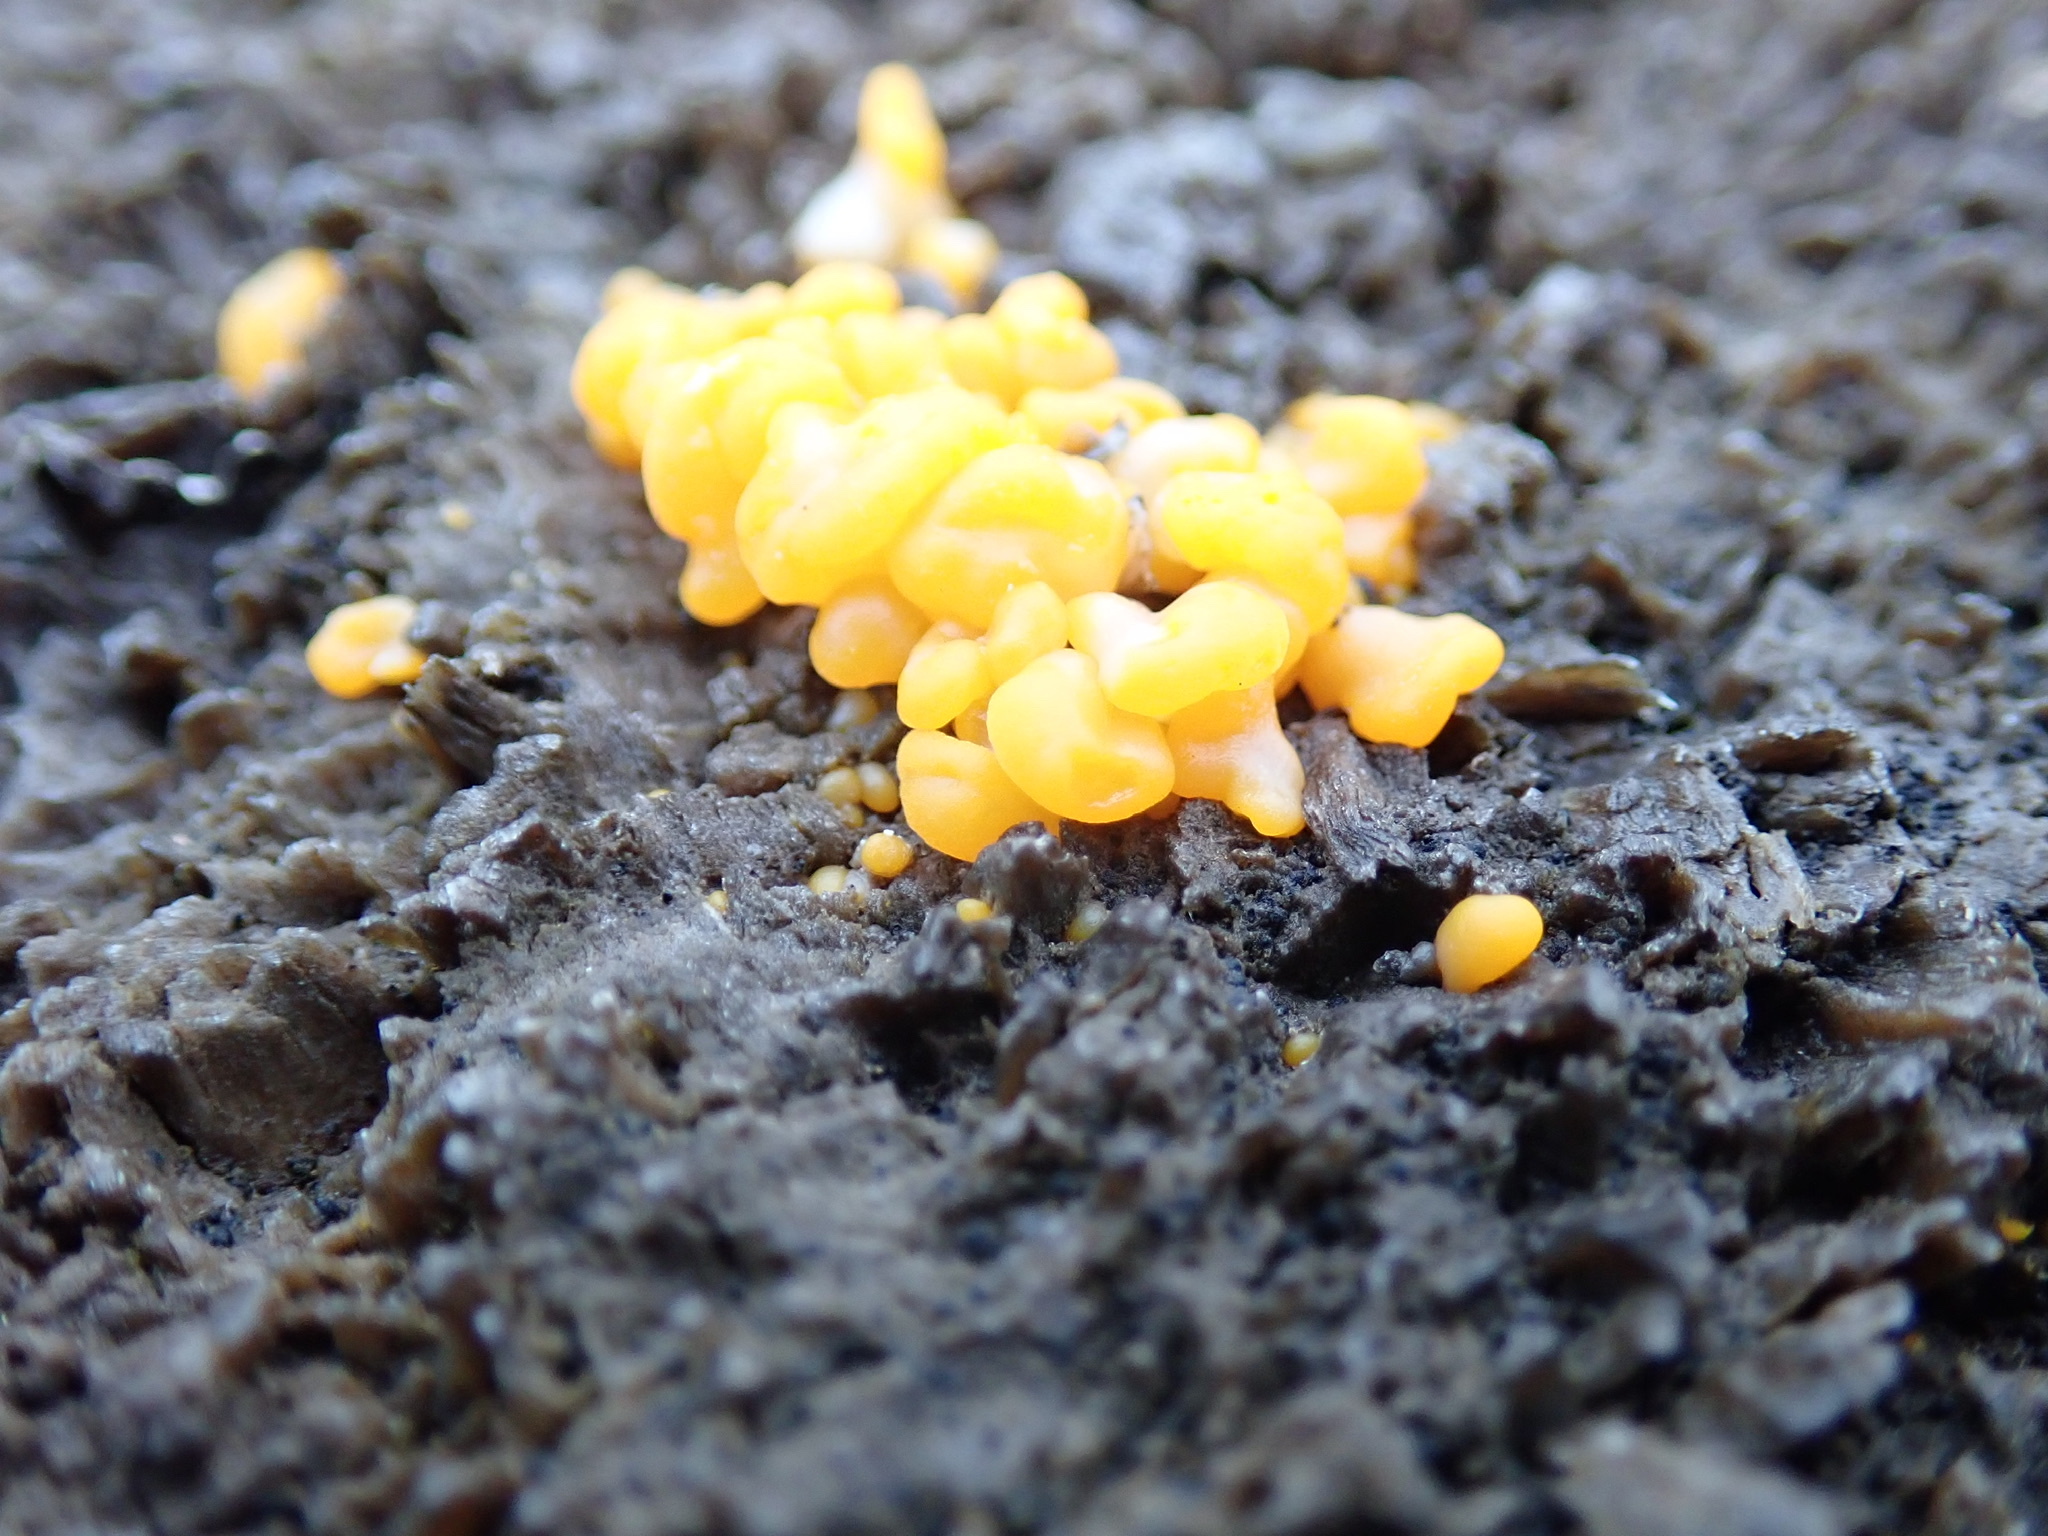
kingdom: Fungi
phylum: Basidiomycota
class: Dacrymycetes
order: Dacrymycetales
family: Dacrymycetaceae
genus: Dacrymyces
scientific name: Dacrymyces chrysospermus
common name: Orange jelly spot
